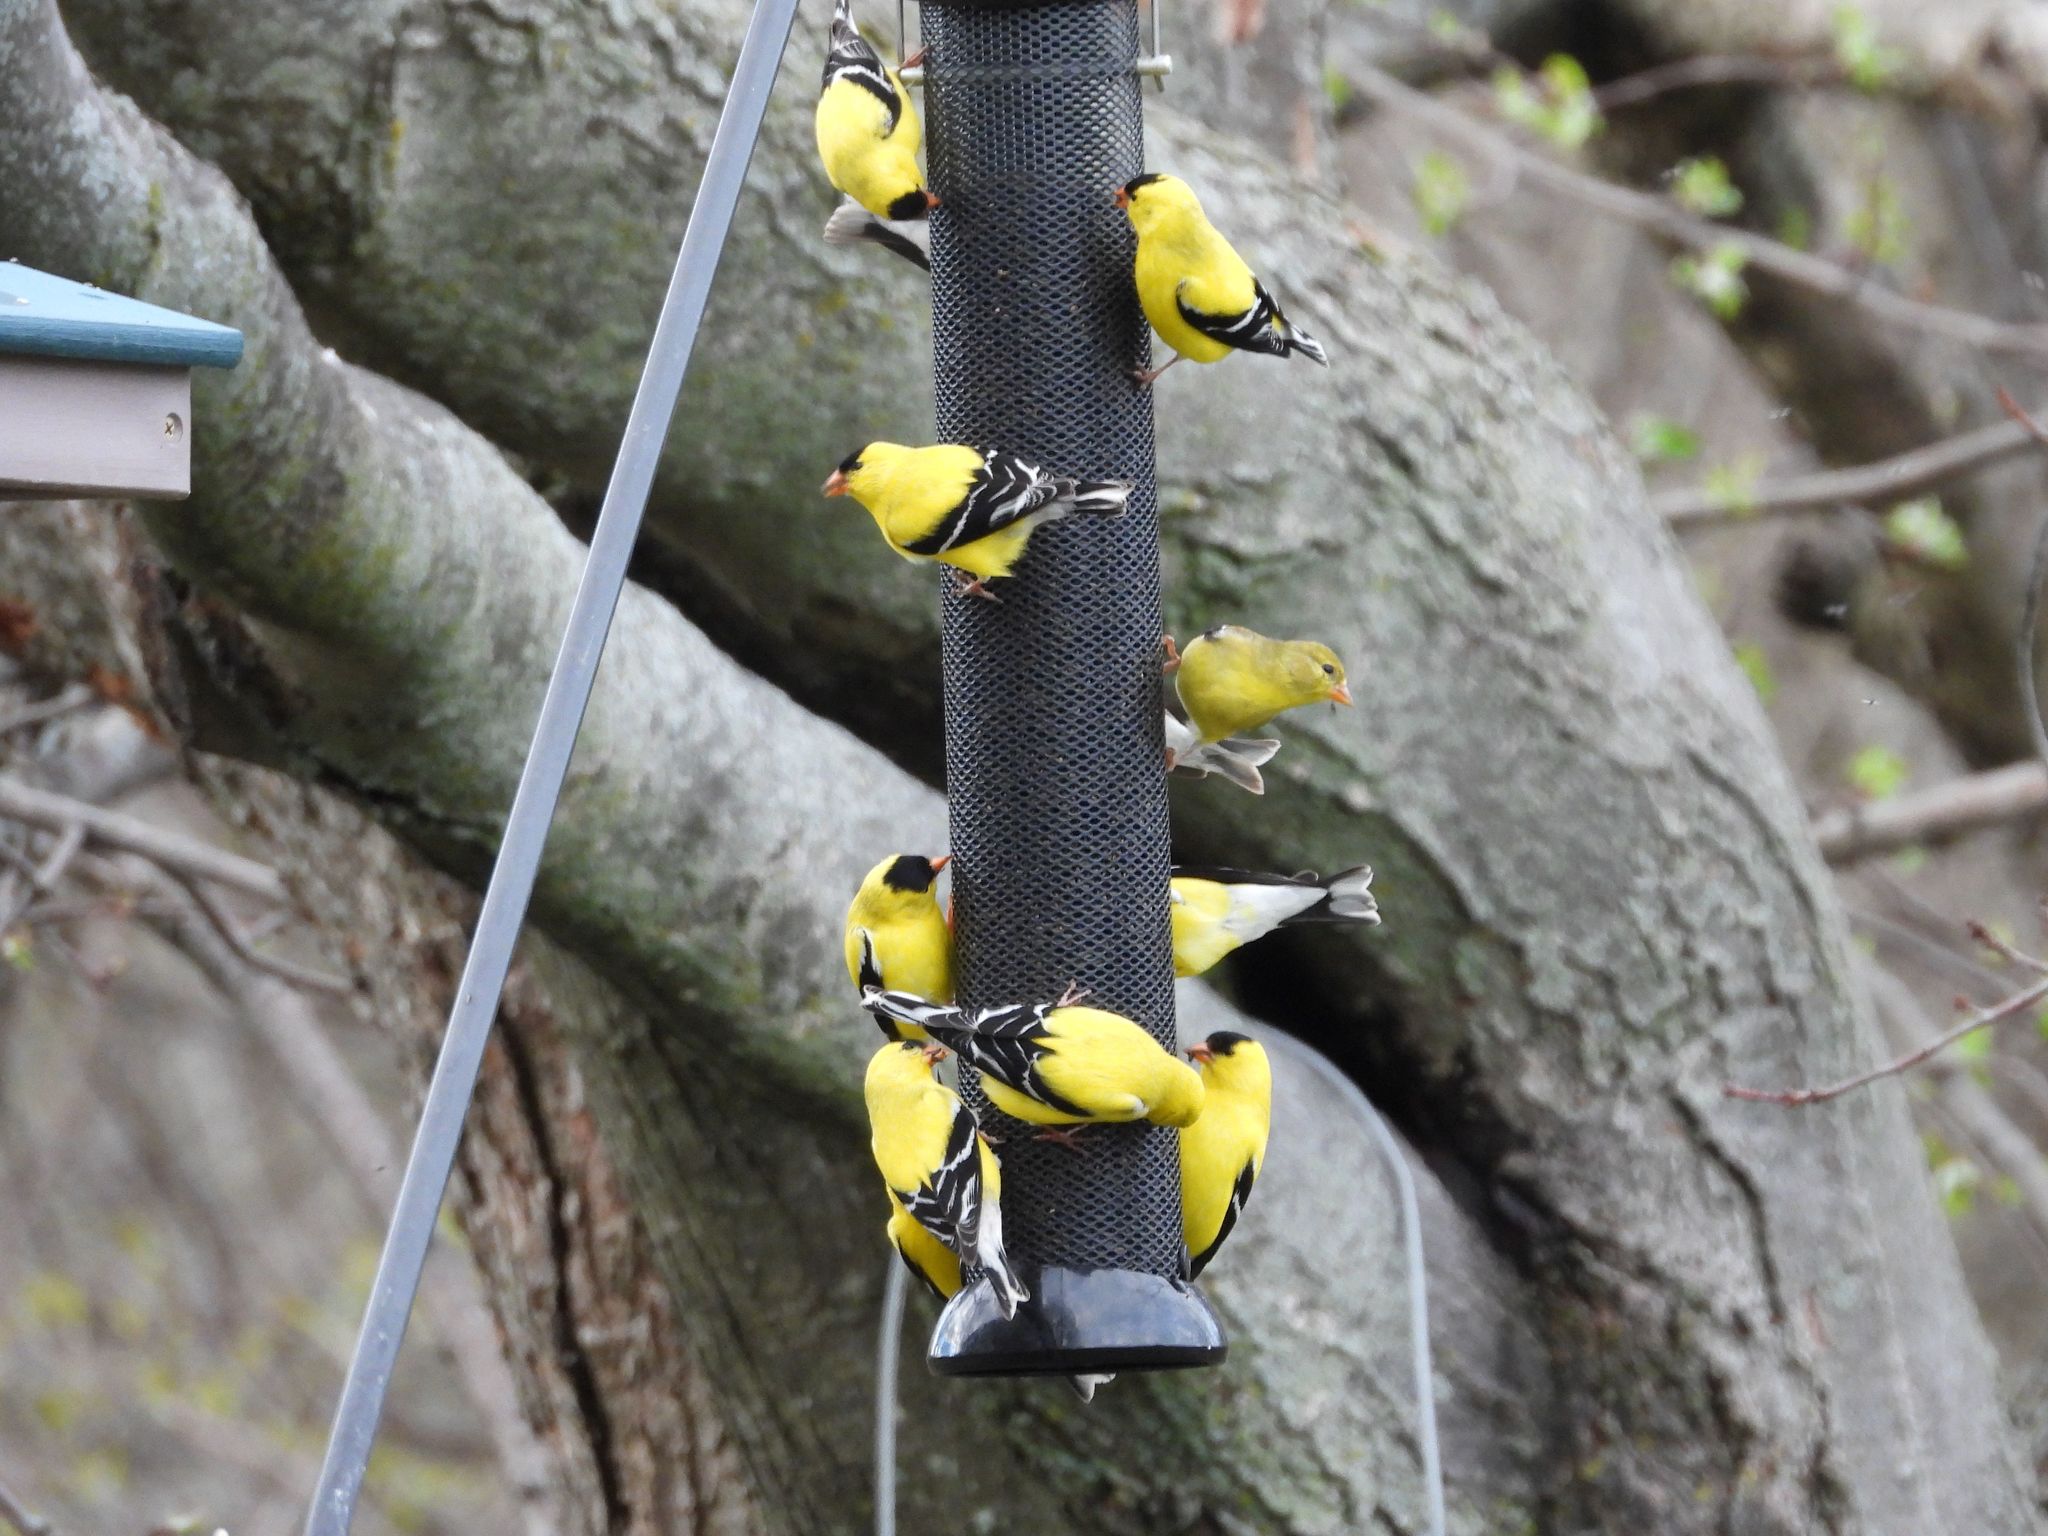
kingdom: Animalia
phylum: Chordata
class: Aves
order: Passeriformes
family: Fringillidae
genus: Spinus
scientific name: Spinus tristis
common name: American goldfinch
